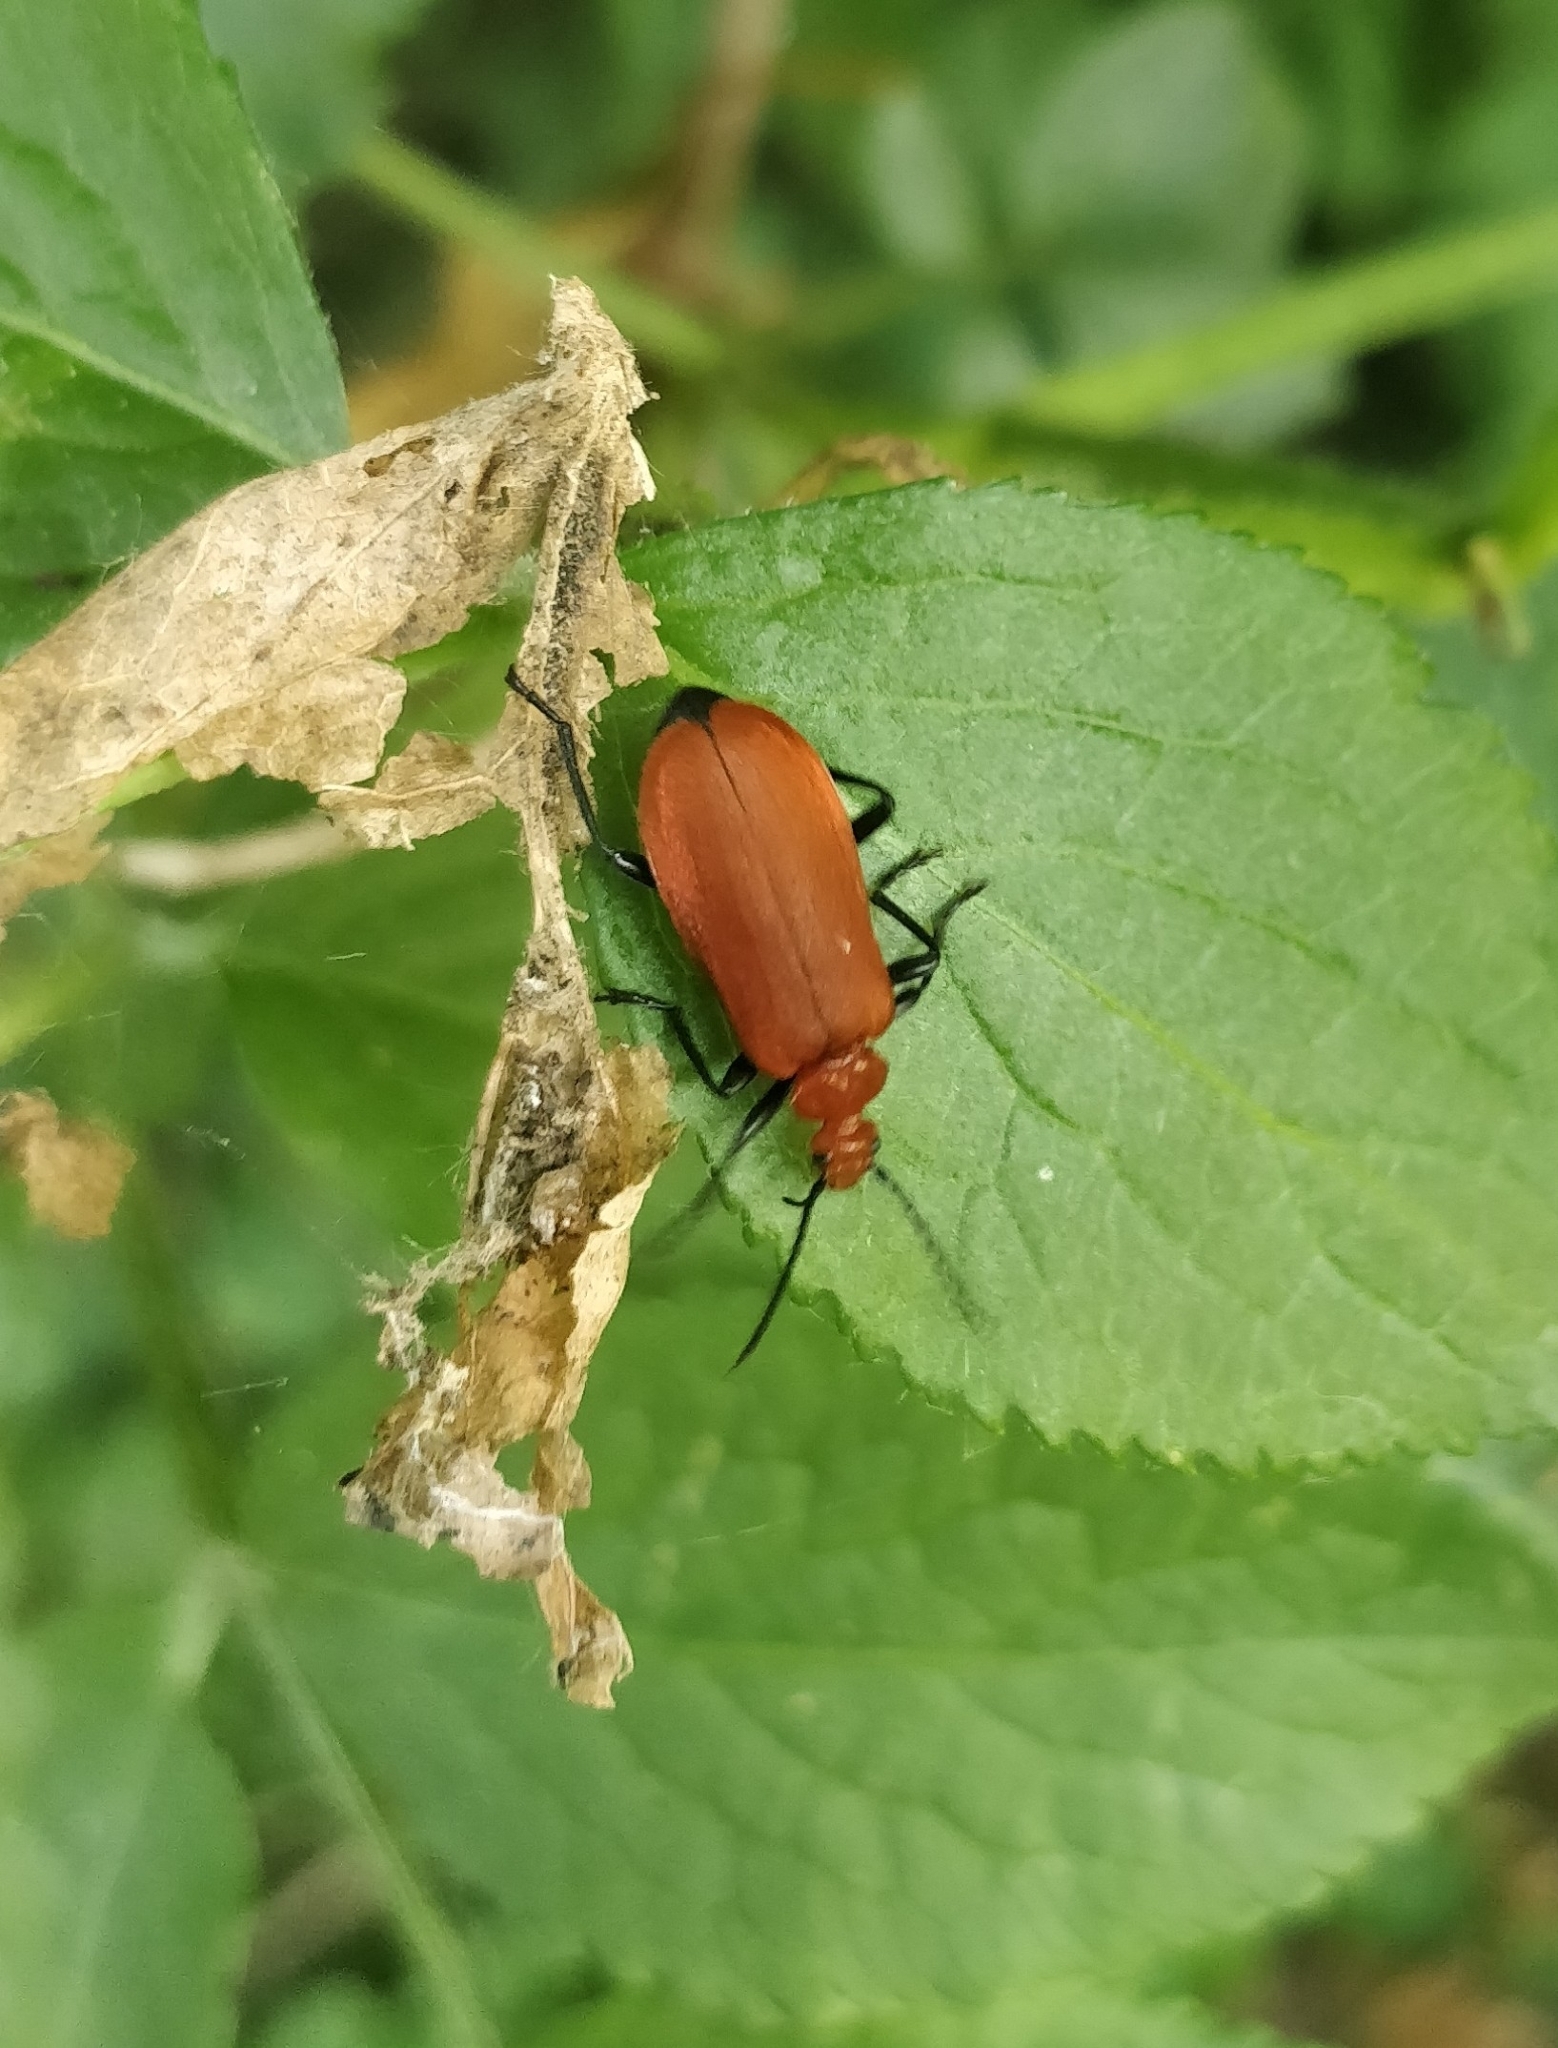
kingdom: Animalia
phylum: Arthropoda
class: Insecta
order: Coleoptera
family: Pyrochroidae
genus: Pyrochroa
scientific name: Pyrochroa serraticornis
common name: Red-headed cardinal beetle
